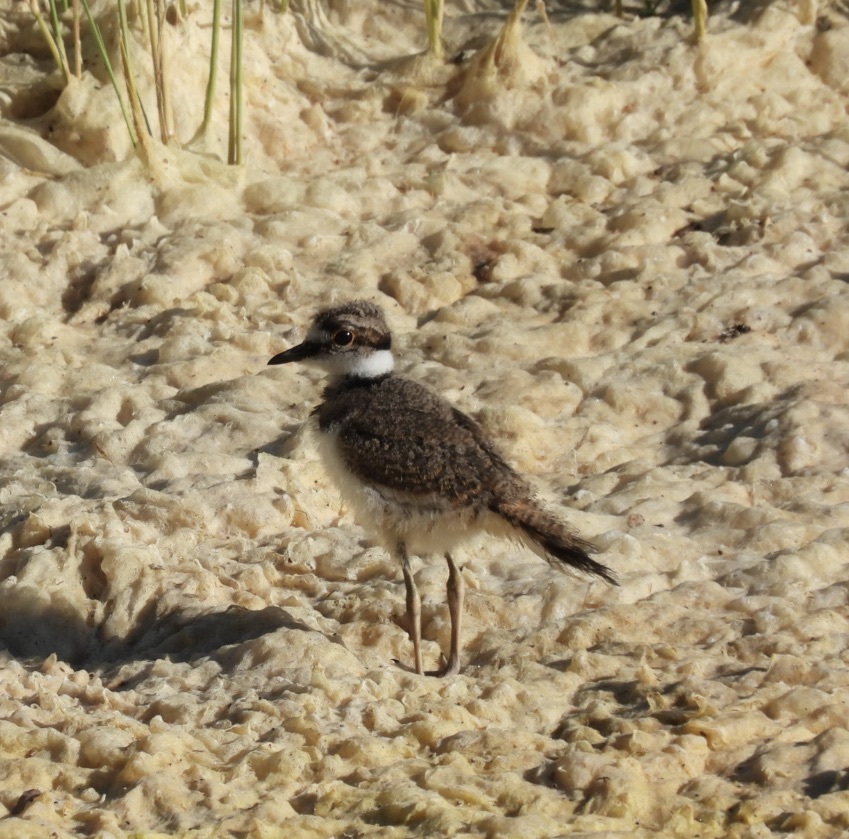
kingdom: Animalia
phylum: Chordata
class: Aves
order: Charadriiformes
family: Charadriidae
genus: Charadrius
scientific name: Charadrius vociferus
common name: Killdeer
